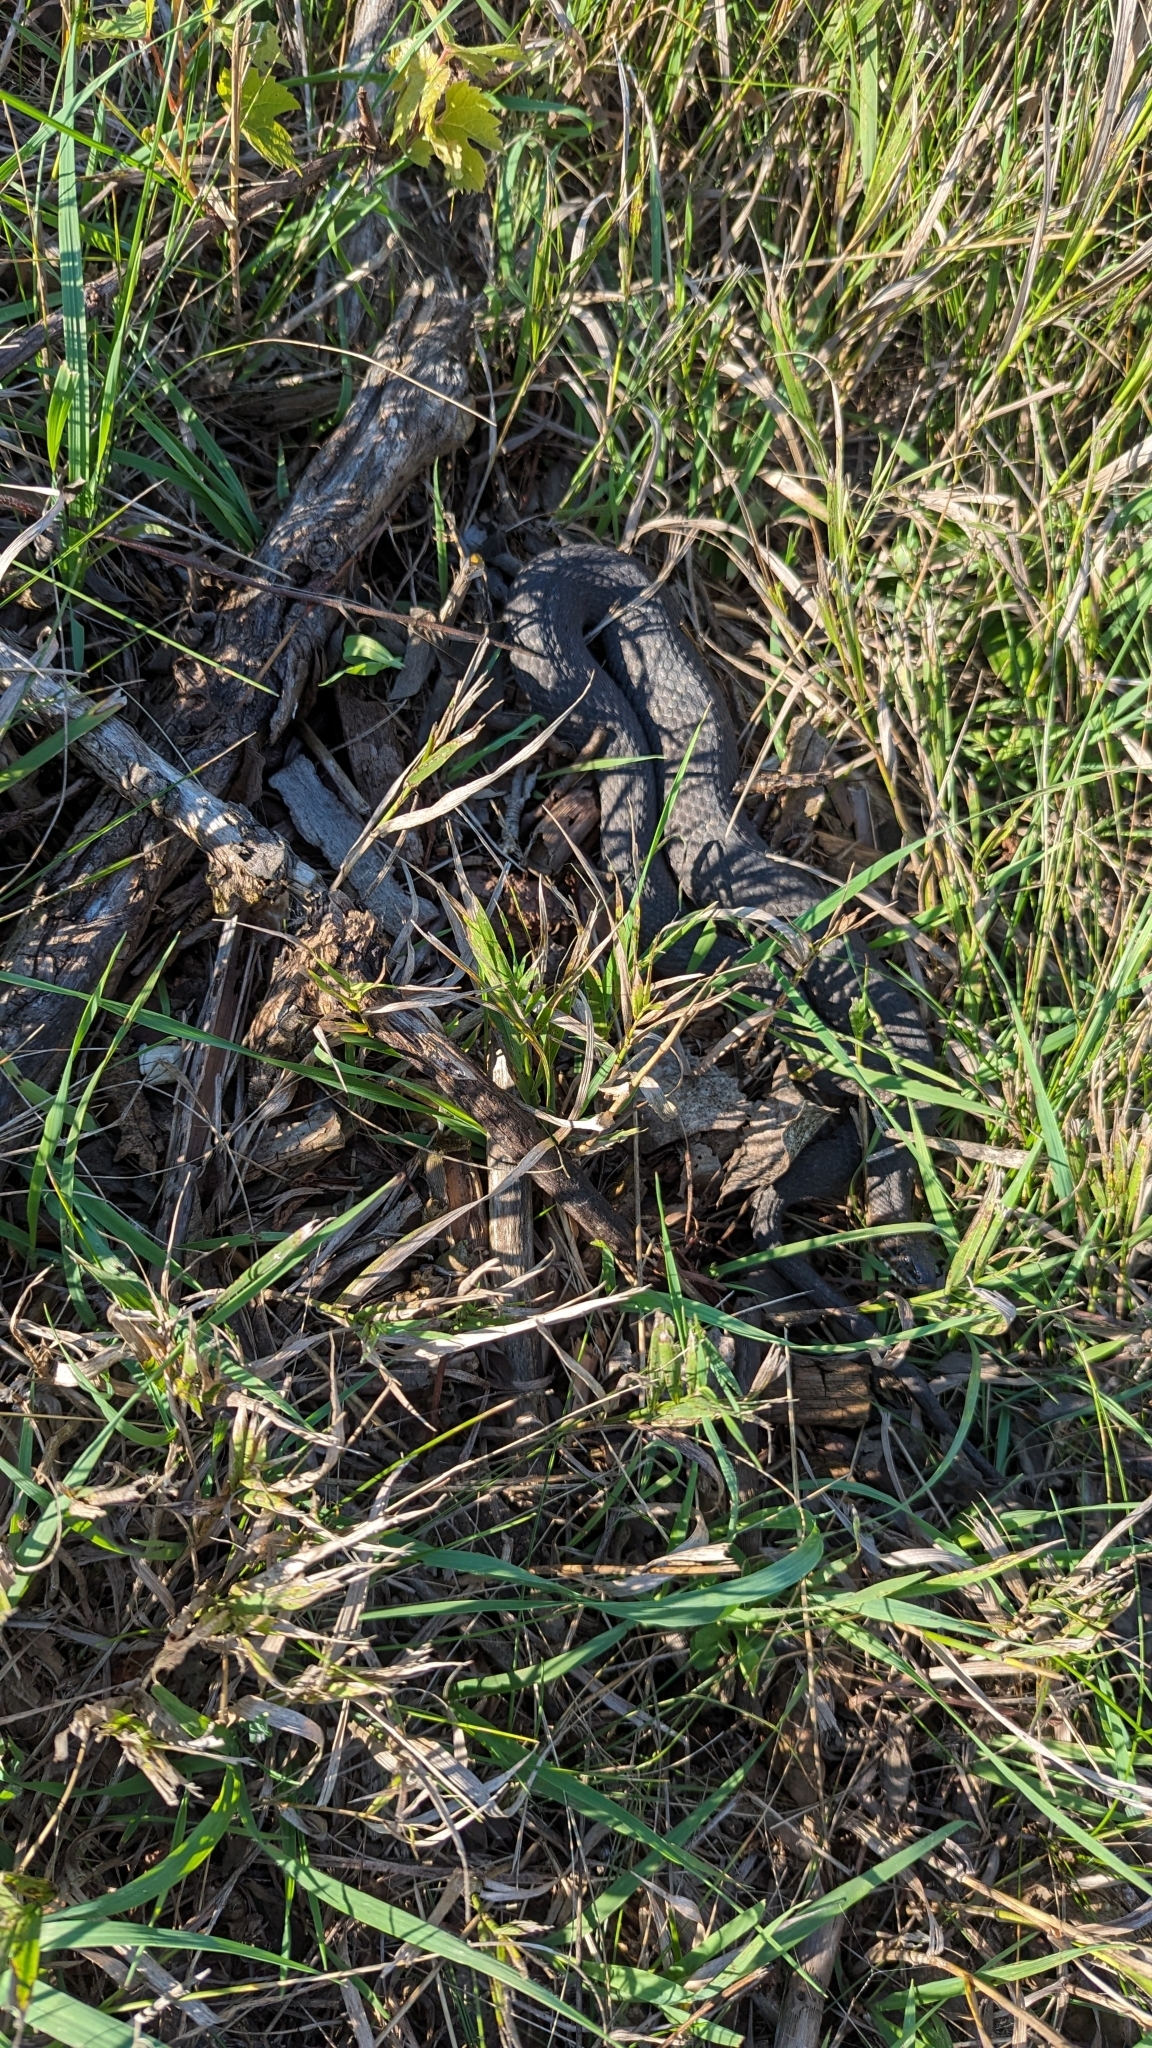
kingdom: Animalia
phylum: Chordata
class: Squamata
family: Colubridae
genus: Nerodia
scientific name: Nerodia sipedon
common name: Northern water snake
